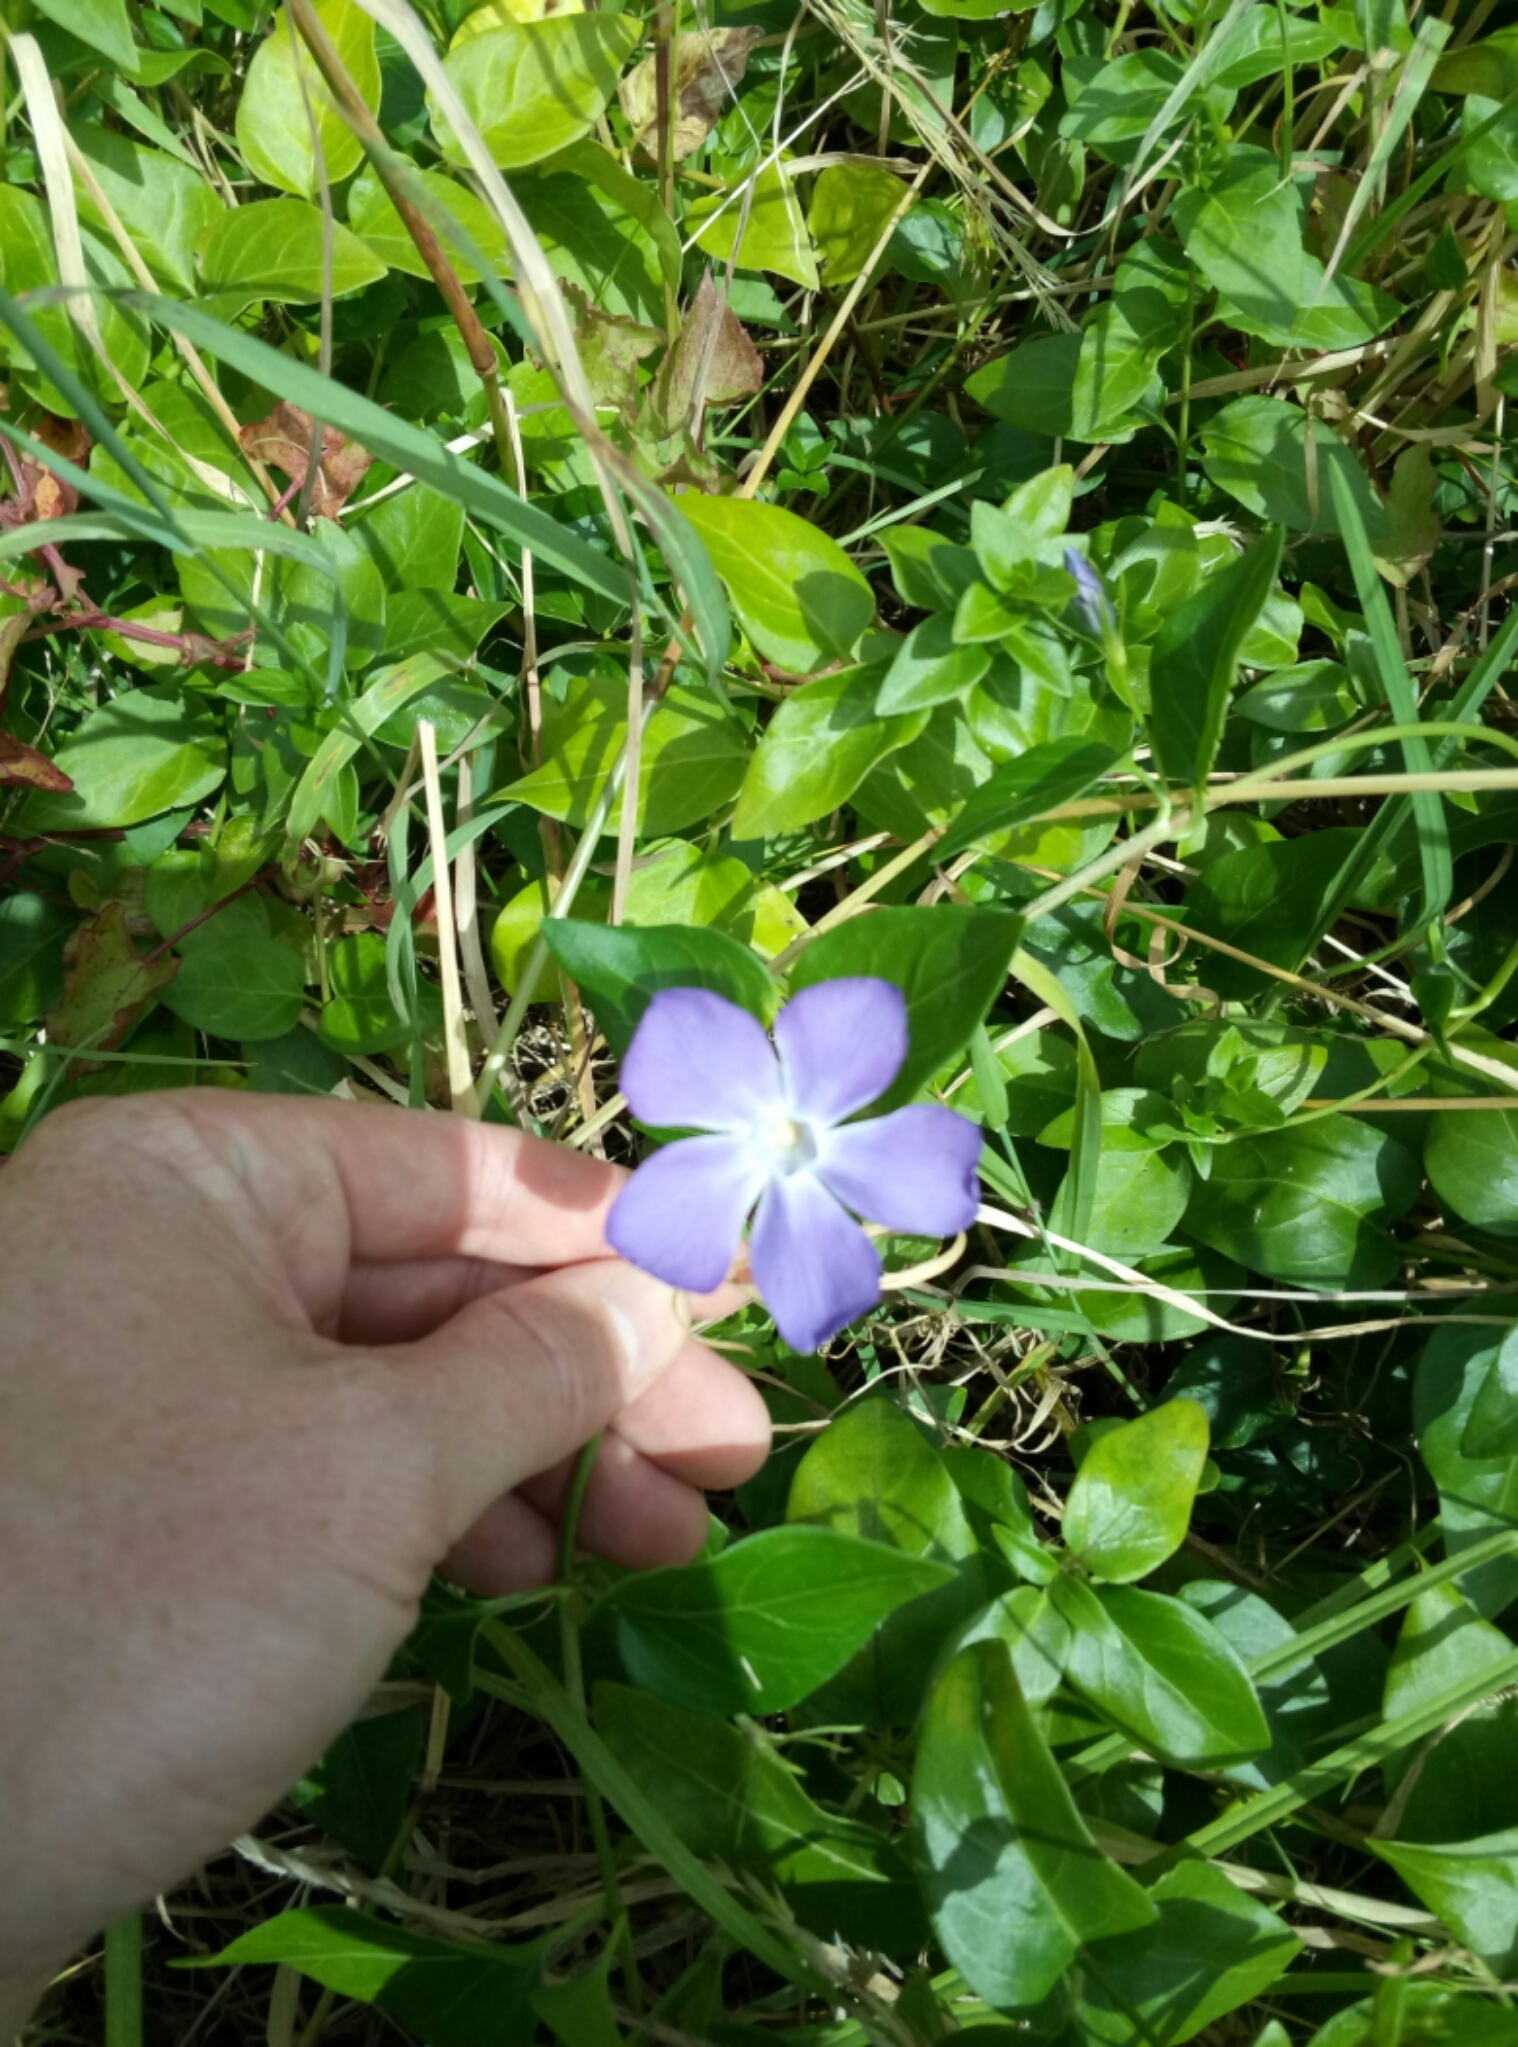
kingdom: Plantae
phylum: Tracheophyta
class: Magnoliopsida
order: Gentianales
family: Apocynaceae
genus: Vinca
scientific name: Vinca major
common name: Greater periwinkle
